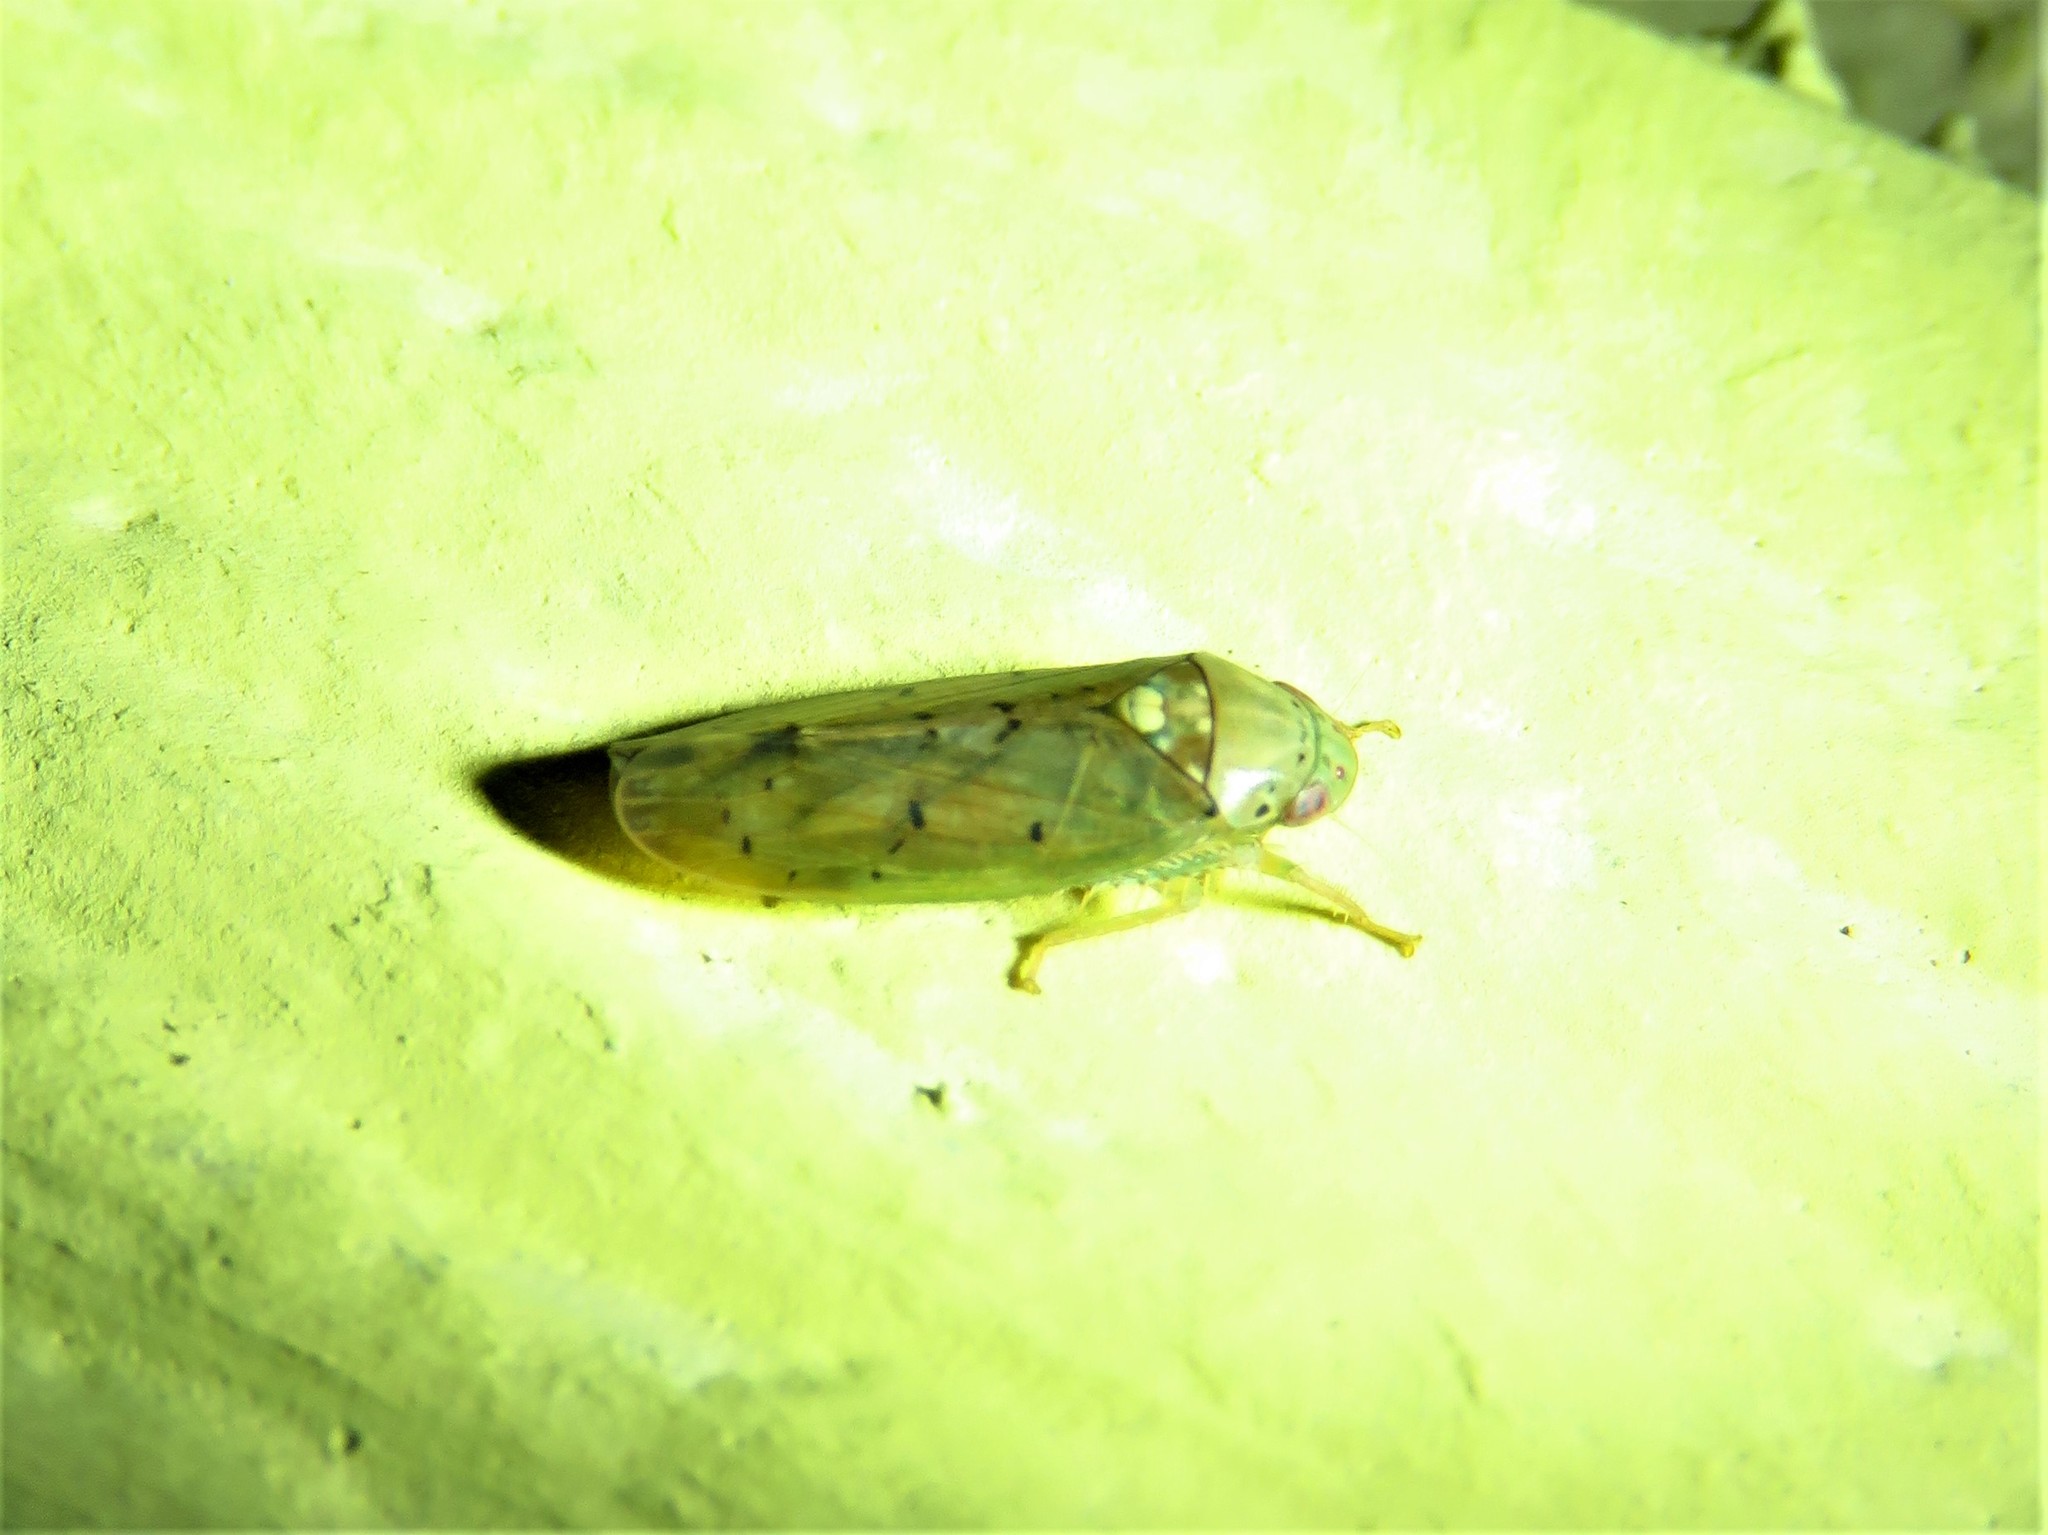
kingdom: Animalia
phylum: Arthropoda
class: Insecta
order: Hemiptera
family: Cicadellidae
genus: Ponana
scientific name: Ponana quadralaba
